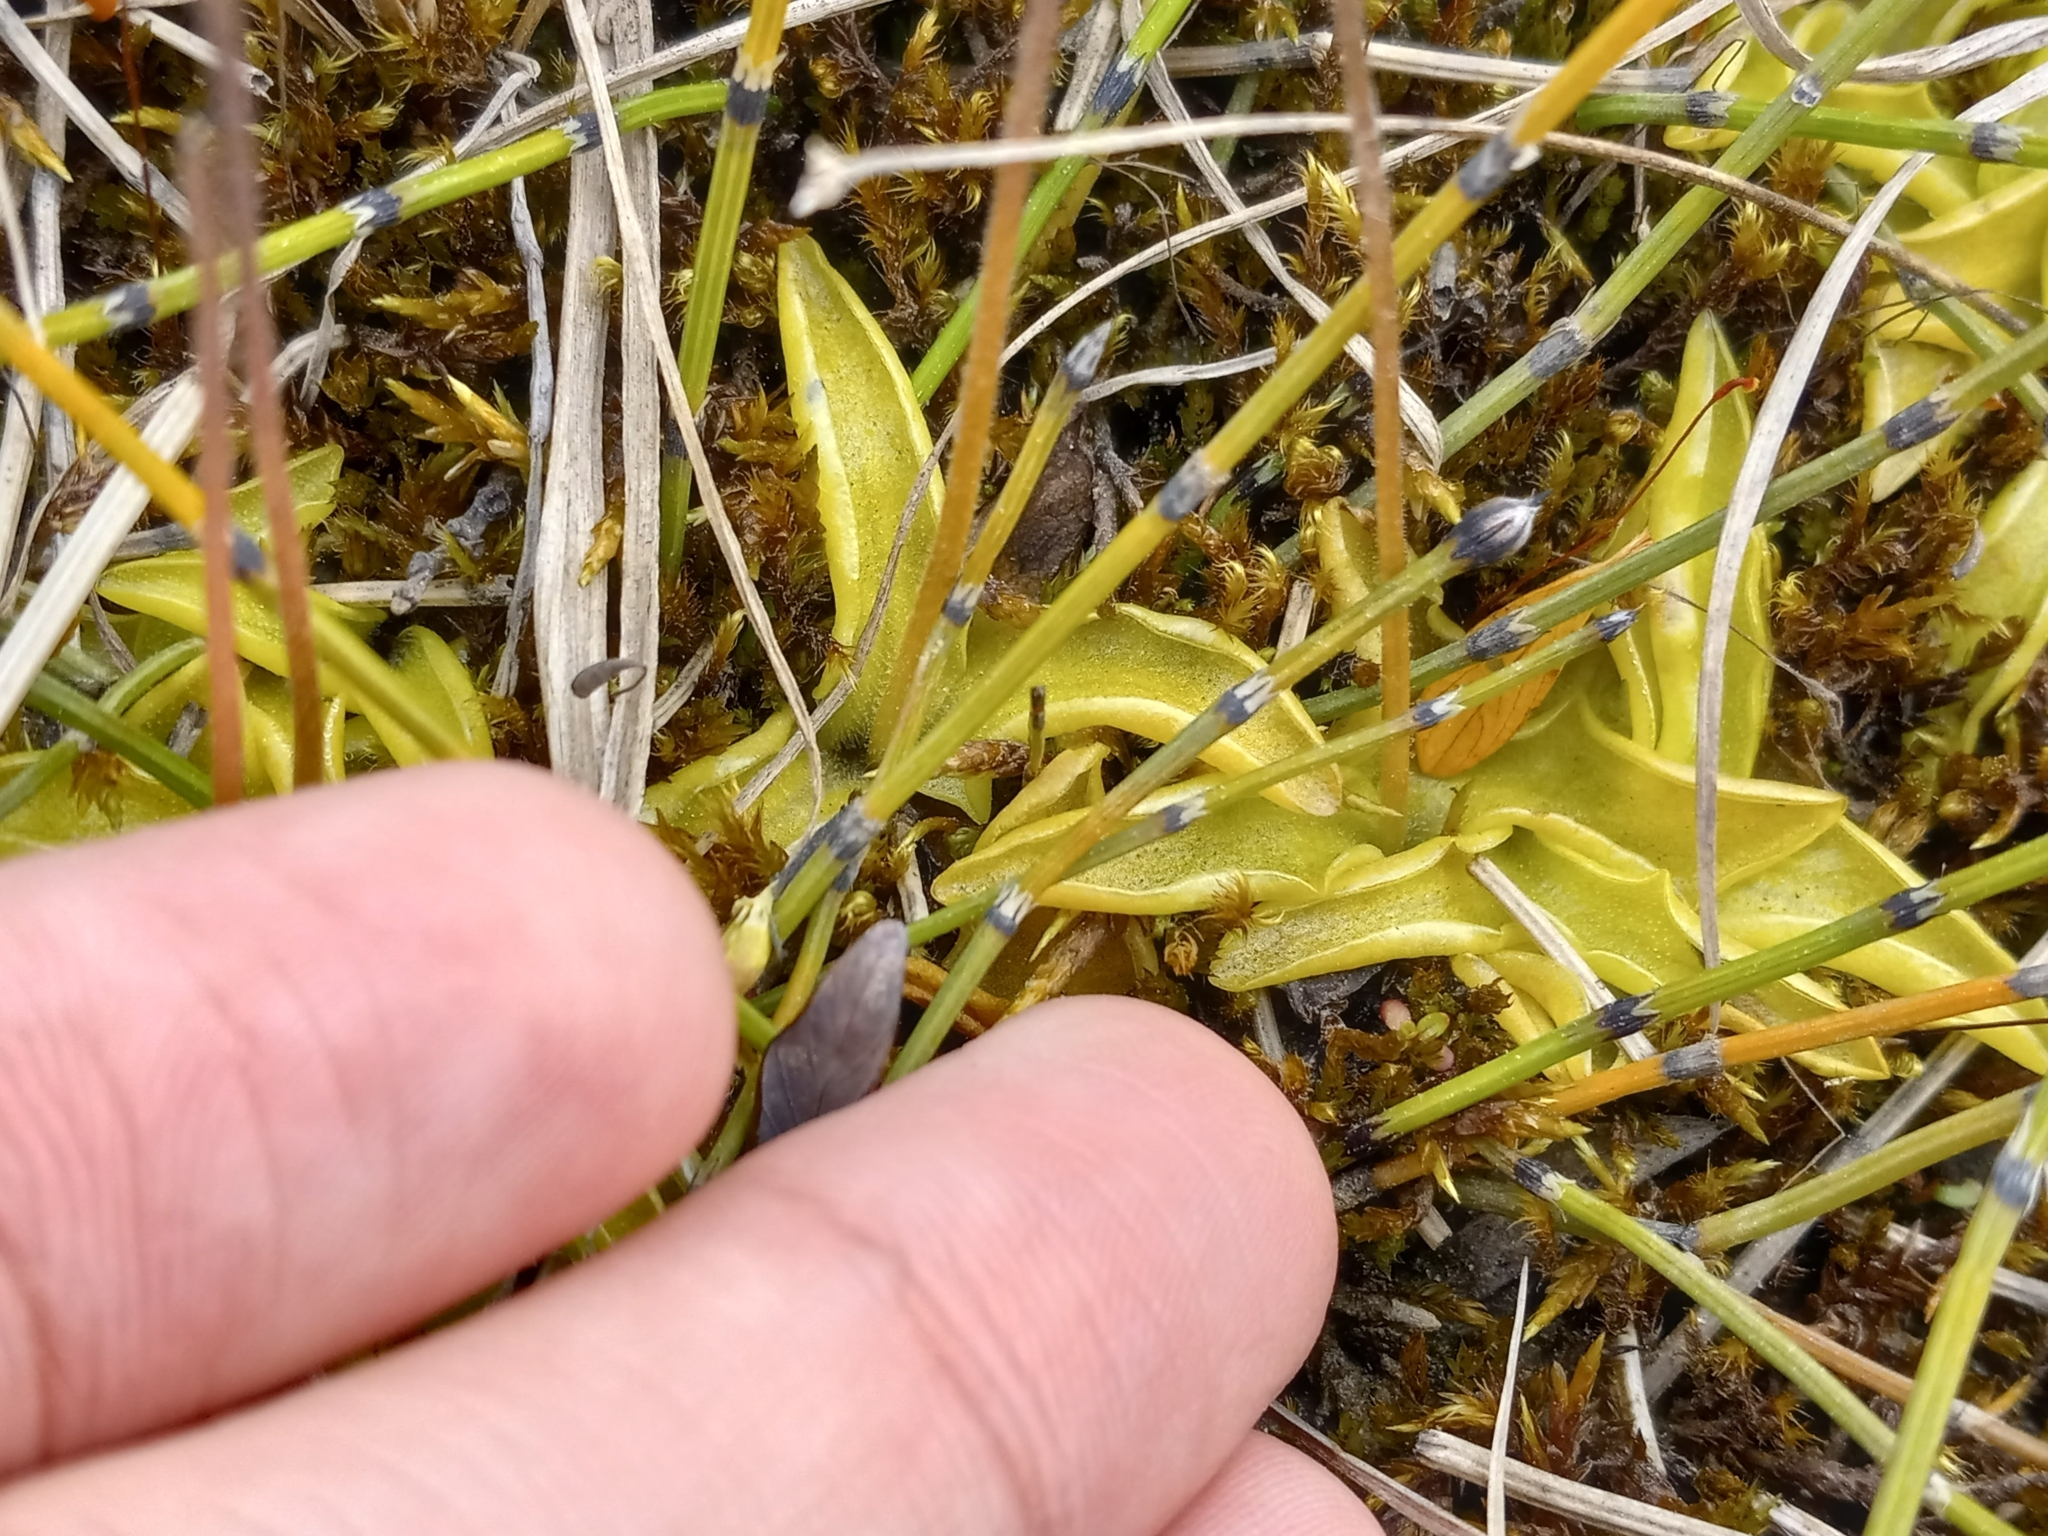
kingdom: Plantae
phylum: Tracheophyta
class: Magnoliopsida
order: Lamiales
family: Lentibulariaceae
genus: Pinguicula
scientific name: Pinguicula vulgaris
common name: Common butterwort
